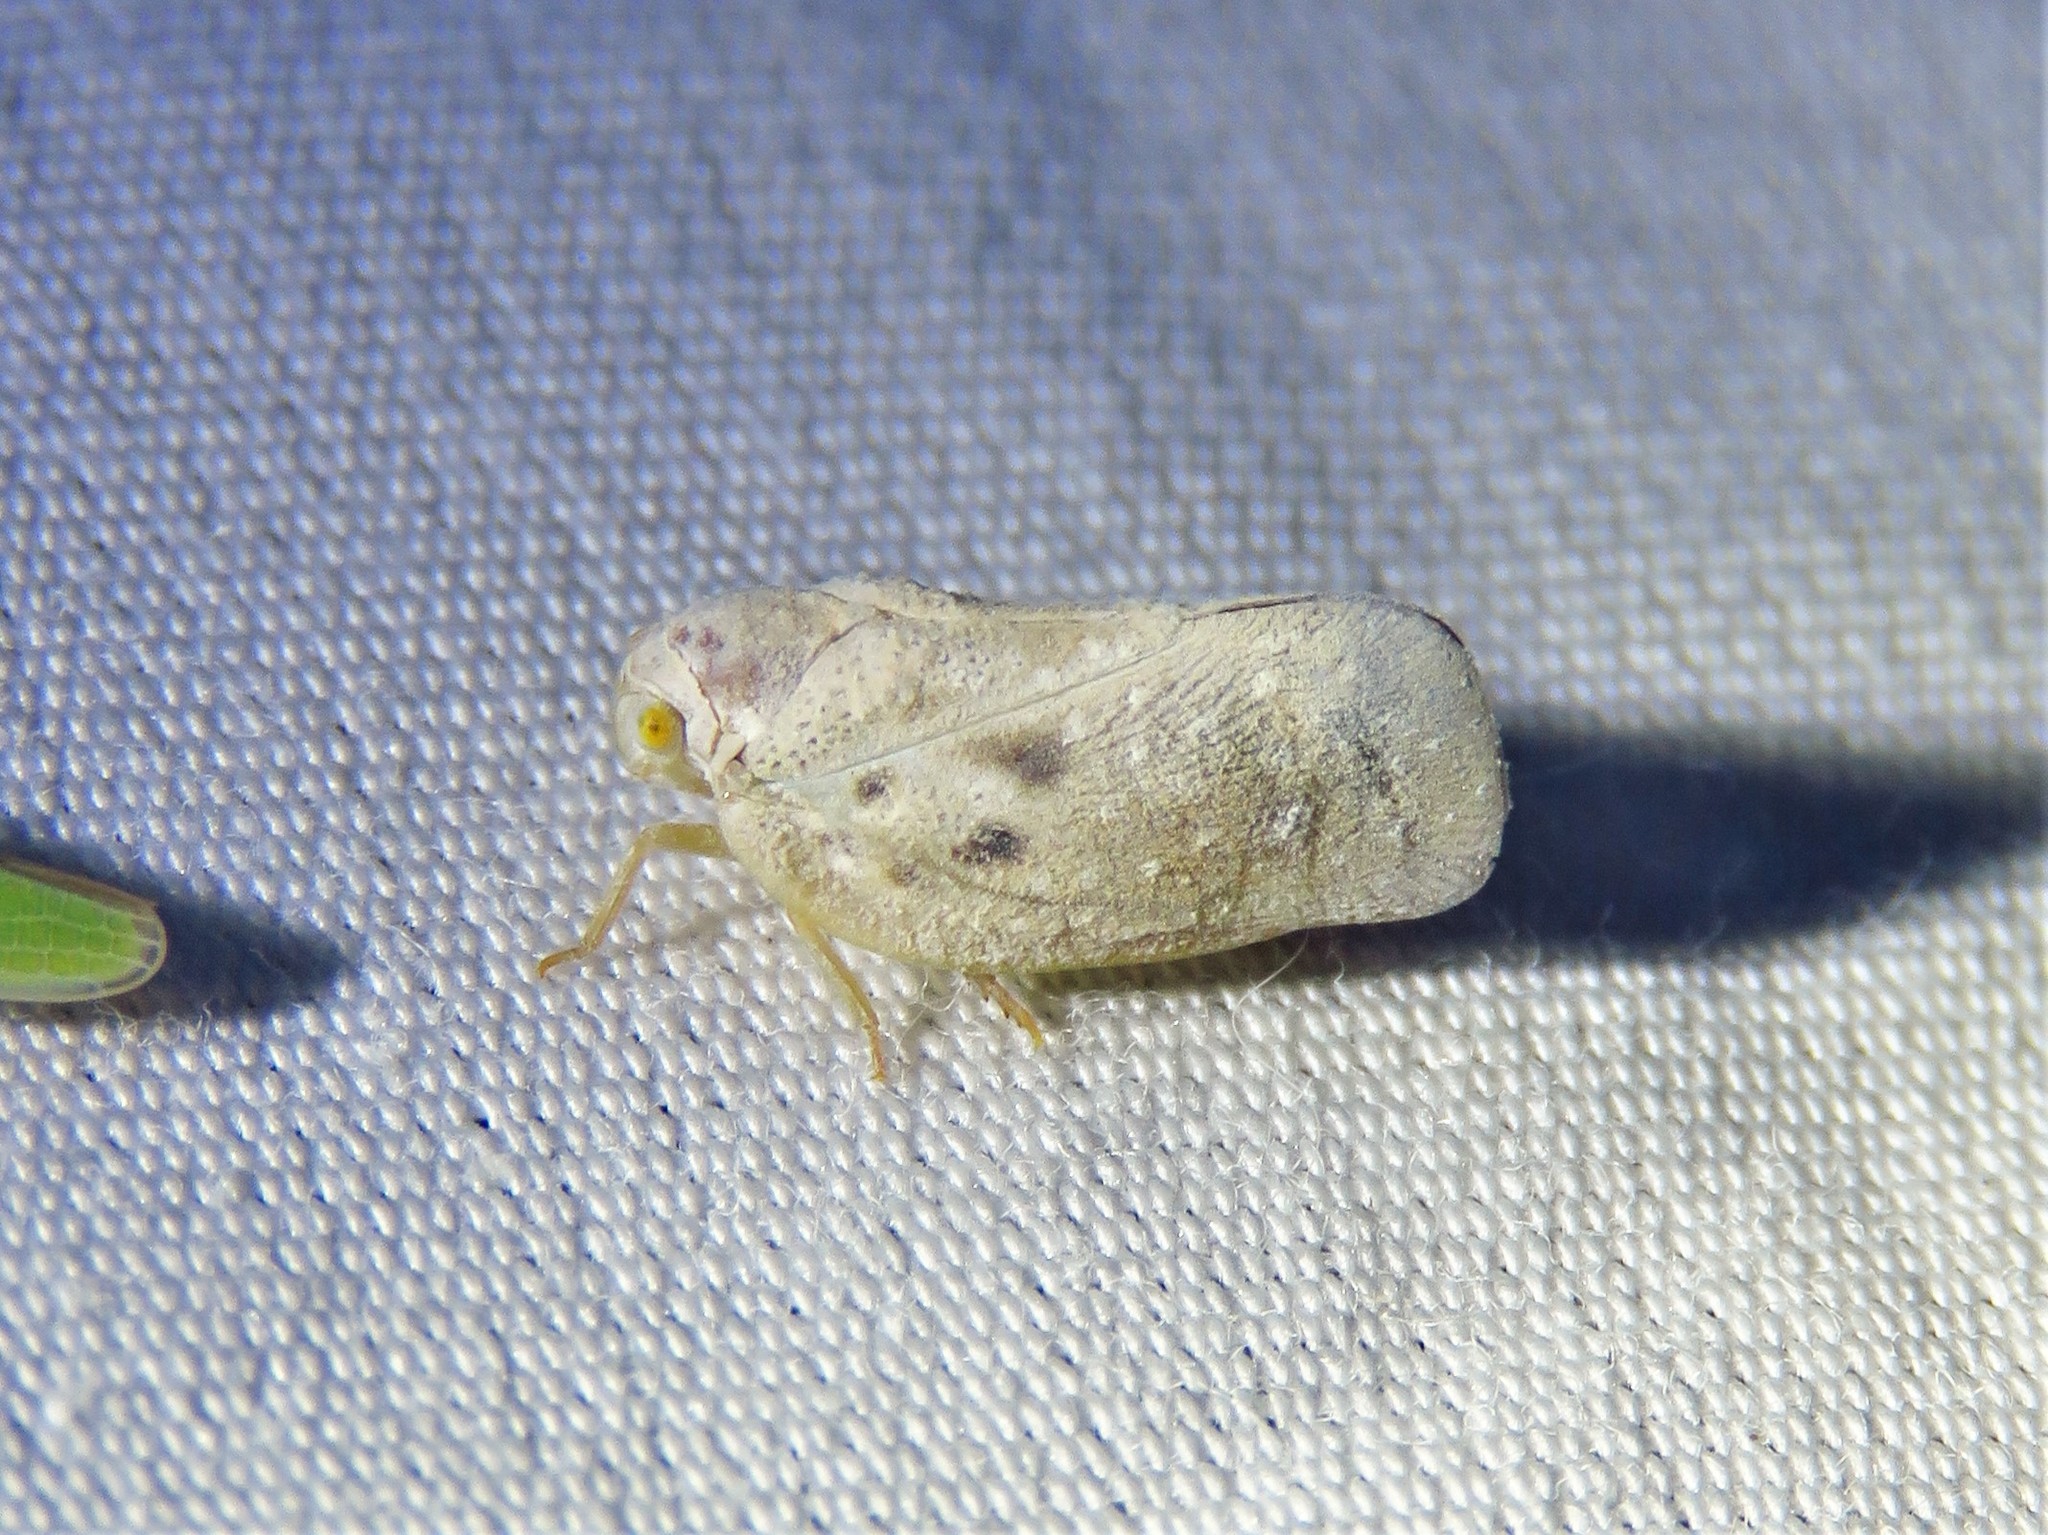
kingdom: Animalia
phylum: Arthropoda
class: Insecta
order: Hemiptera
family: Flatidae
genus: Metcalfa
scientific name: Metcalfa pruinosa
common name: Citrus flatid planthopper
